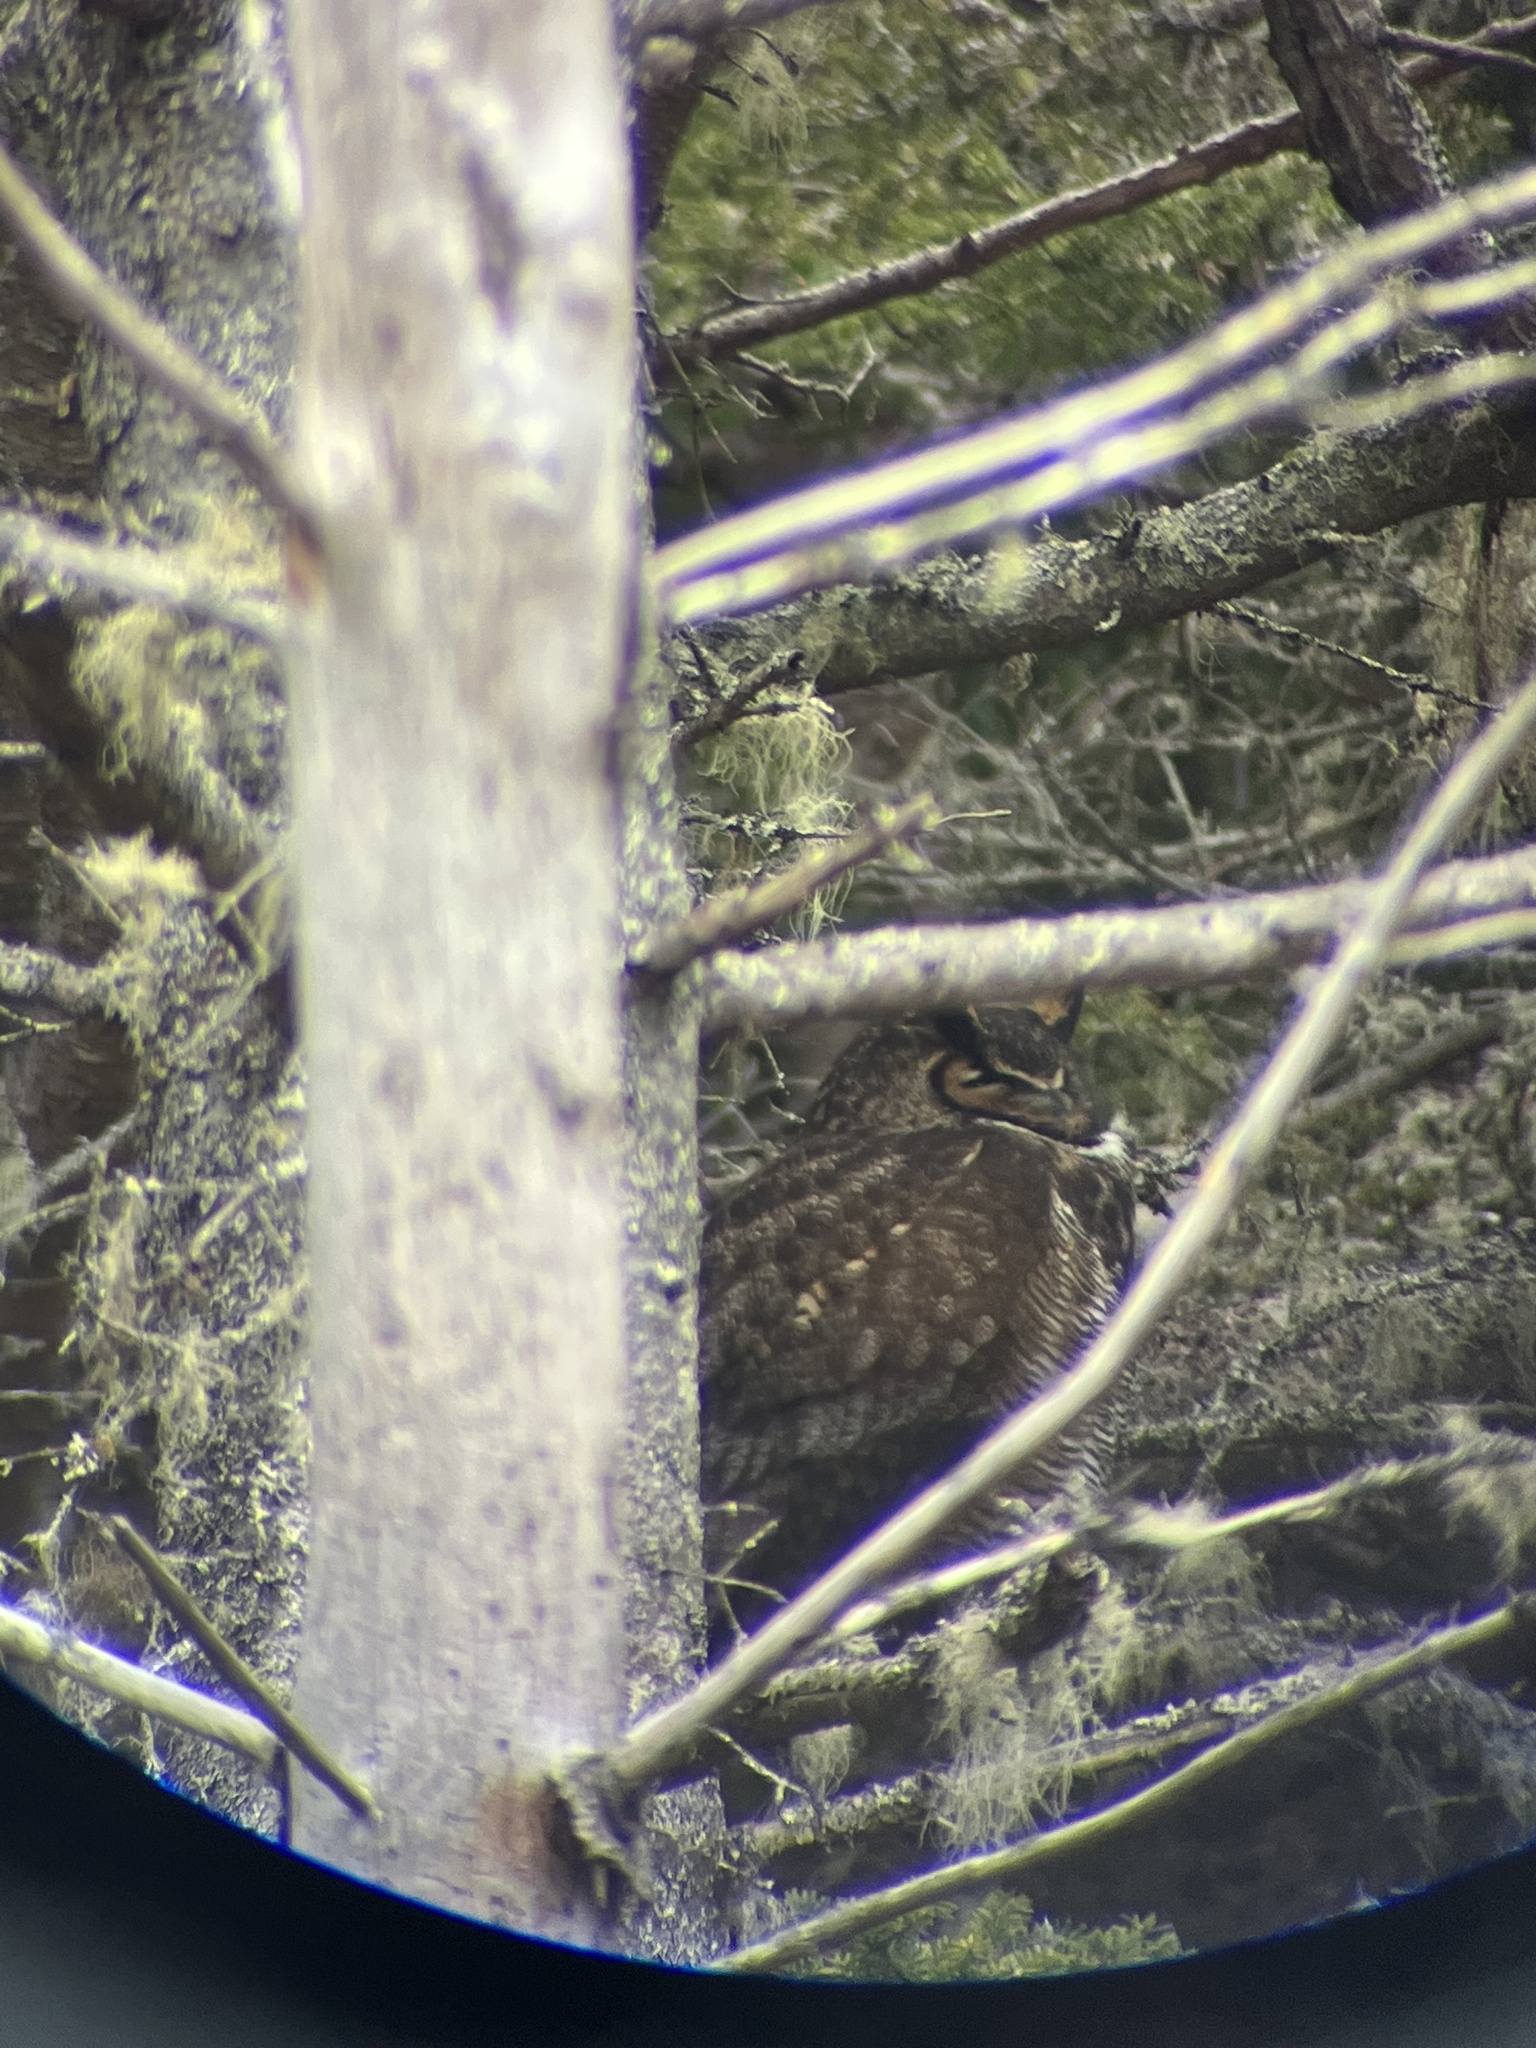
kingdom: Animalia
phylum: Chordata
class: Aves
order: Strigiformes
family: Strigidae
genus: Bubo
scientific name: Bubo virginianus
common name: Great horned owl
